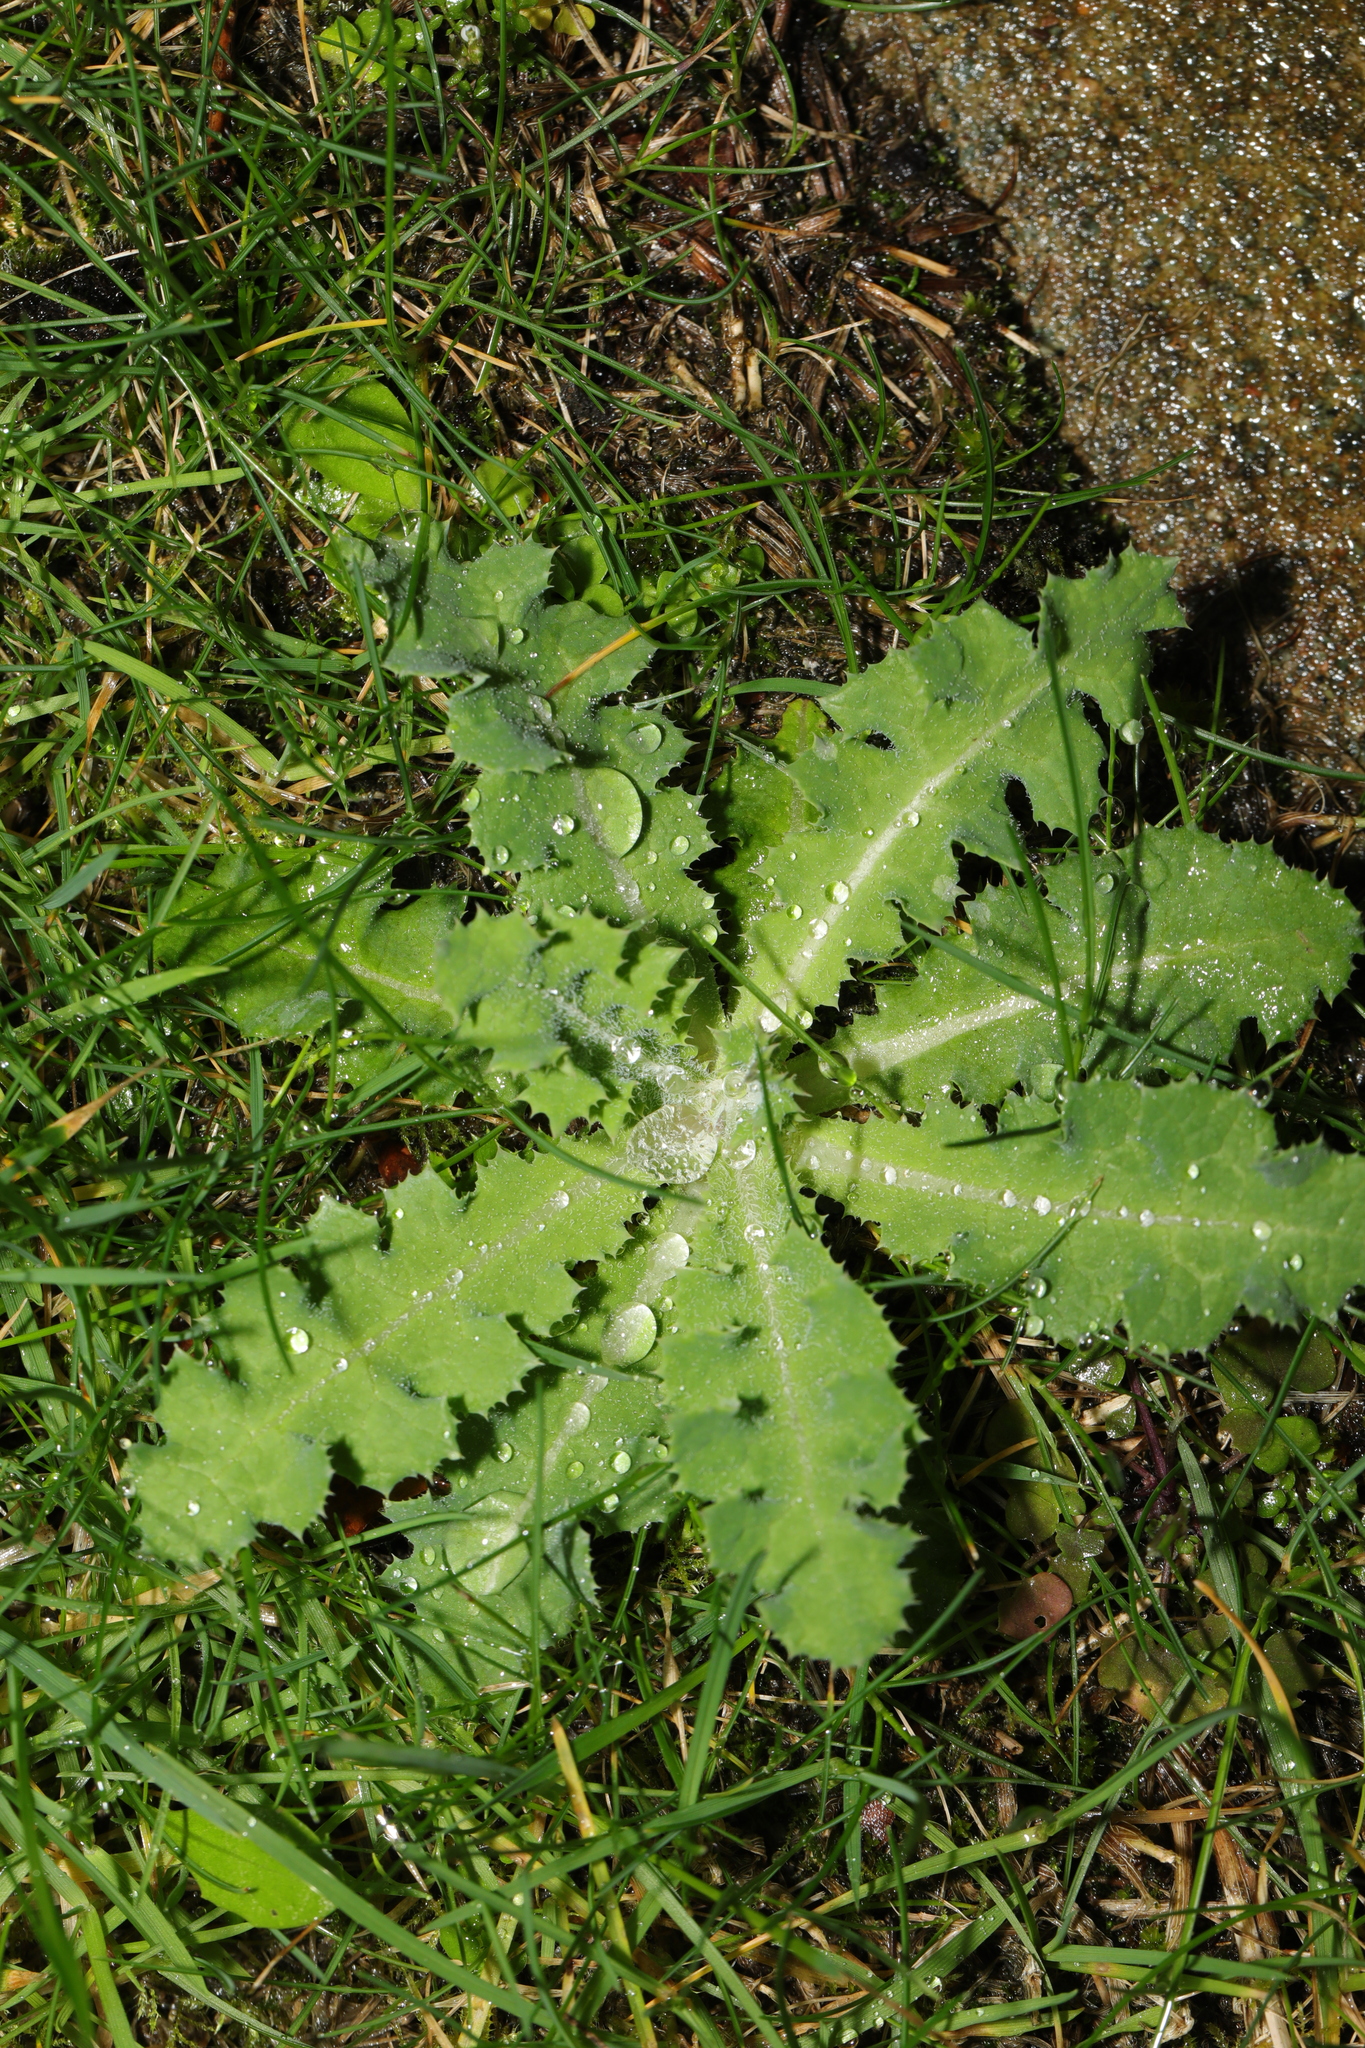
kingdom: Plantae
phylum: Tracheophyta
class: Magnoliopsida
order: Asterales
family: Asteraceae
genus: Sonchus
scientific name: Sonchus asper
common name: Prickly sow-thistle
